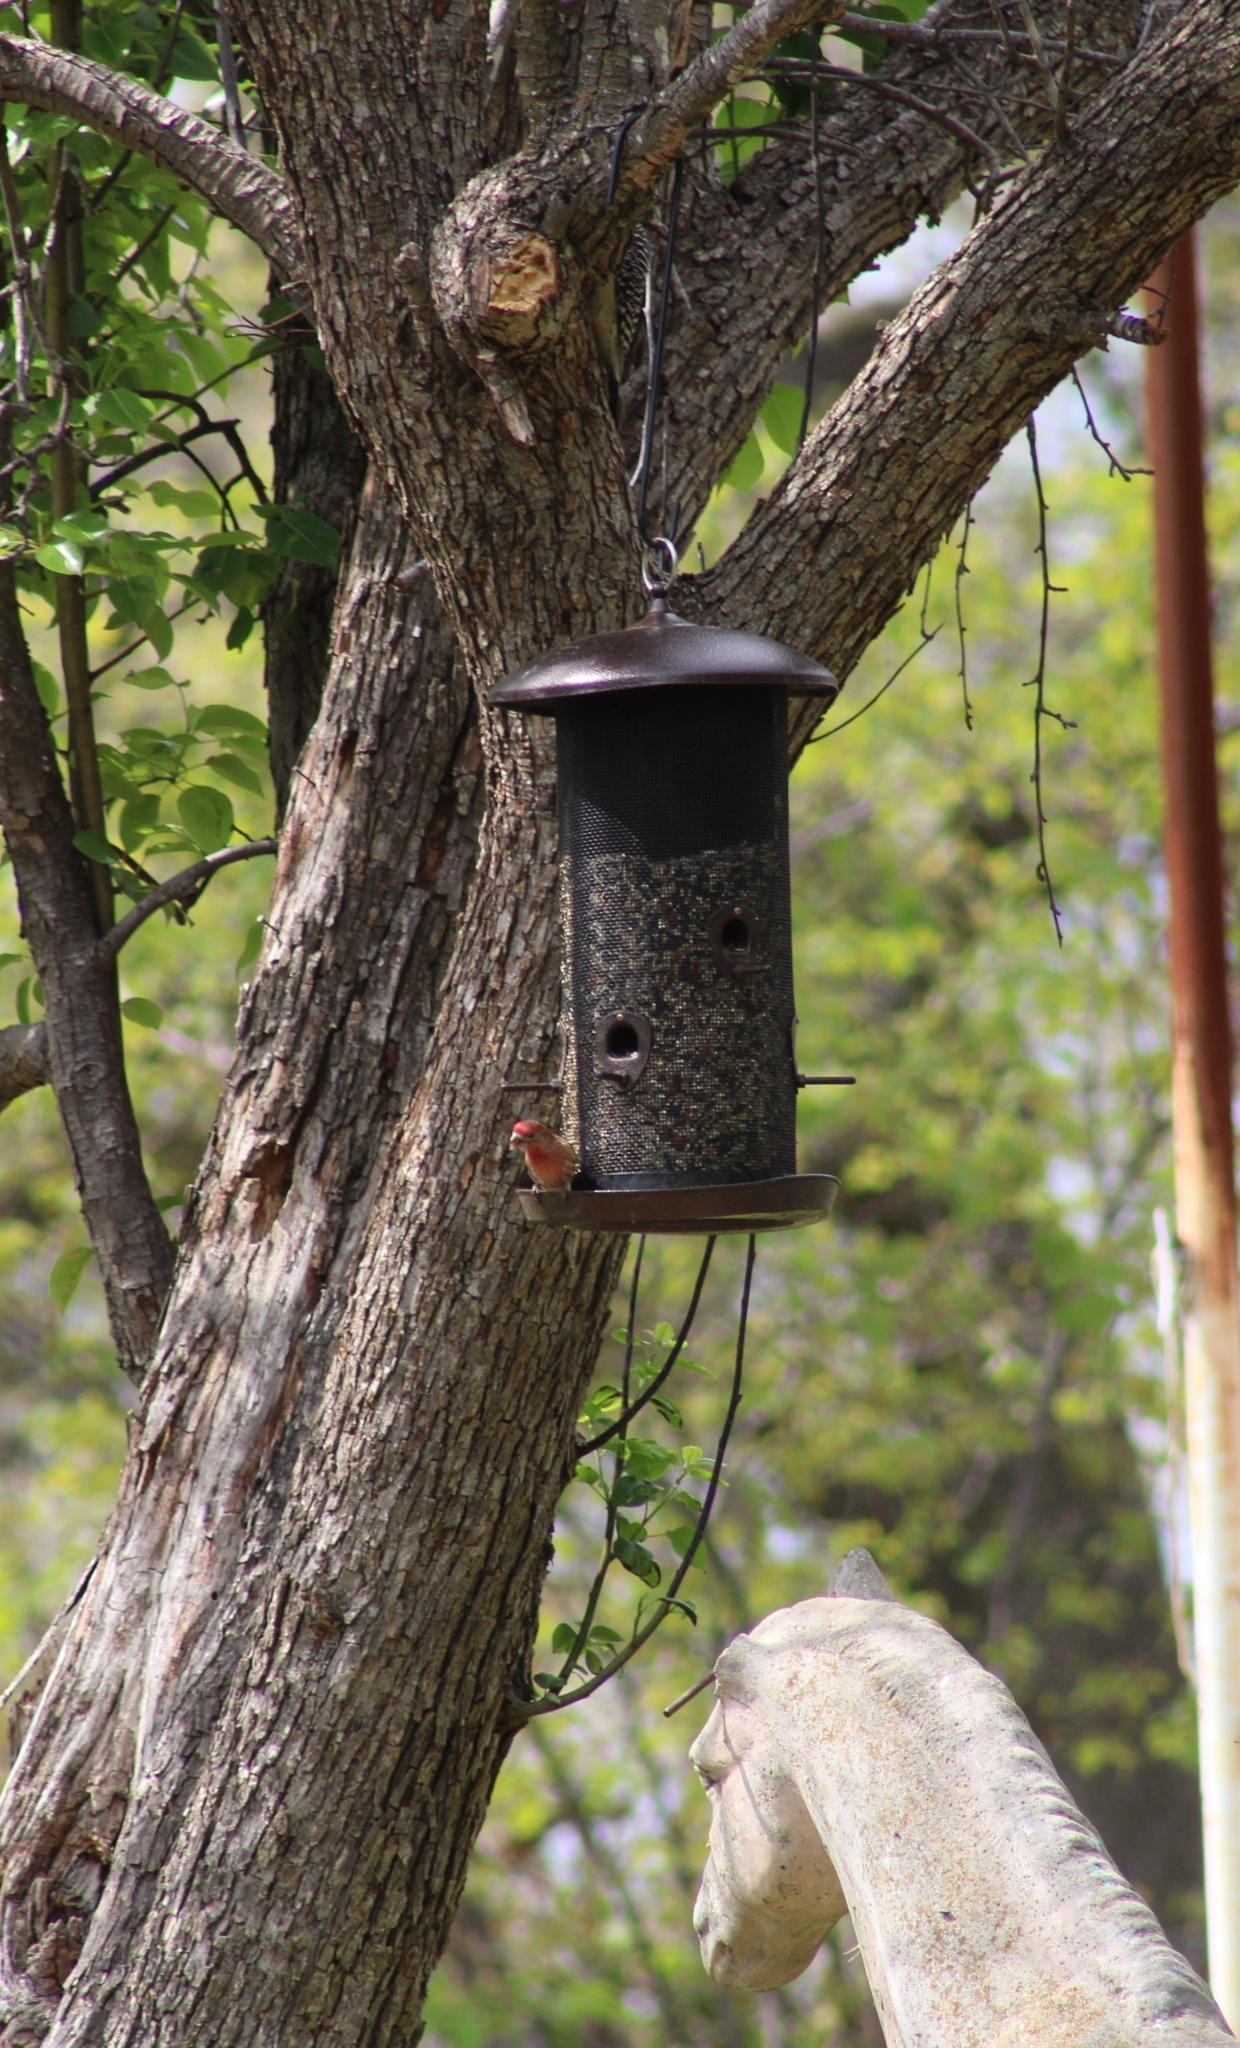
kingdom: Animalia
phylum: Chordata
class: Aves
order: Passeriformes
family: Fringillidae
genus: Haemorhous
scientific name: Haemorhous mexicanus
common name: House finch
